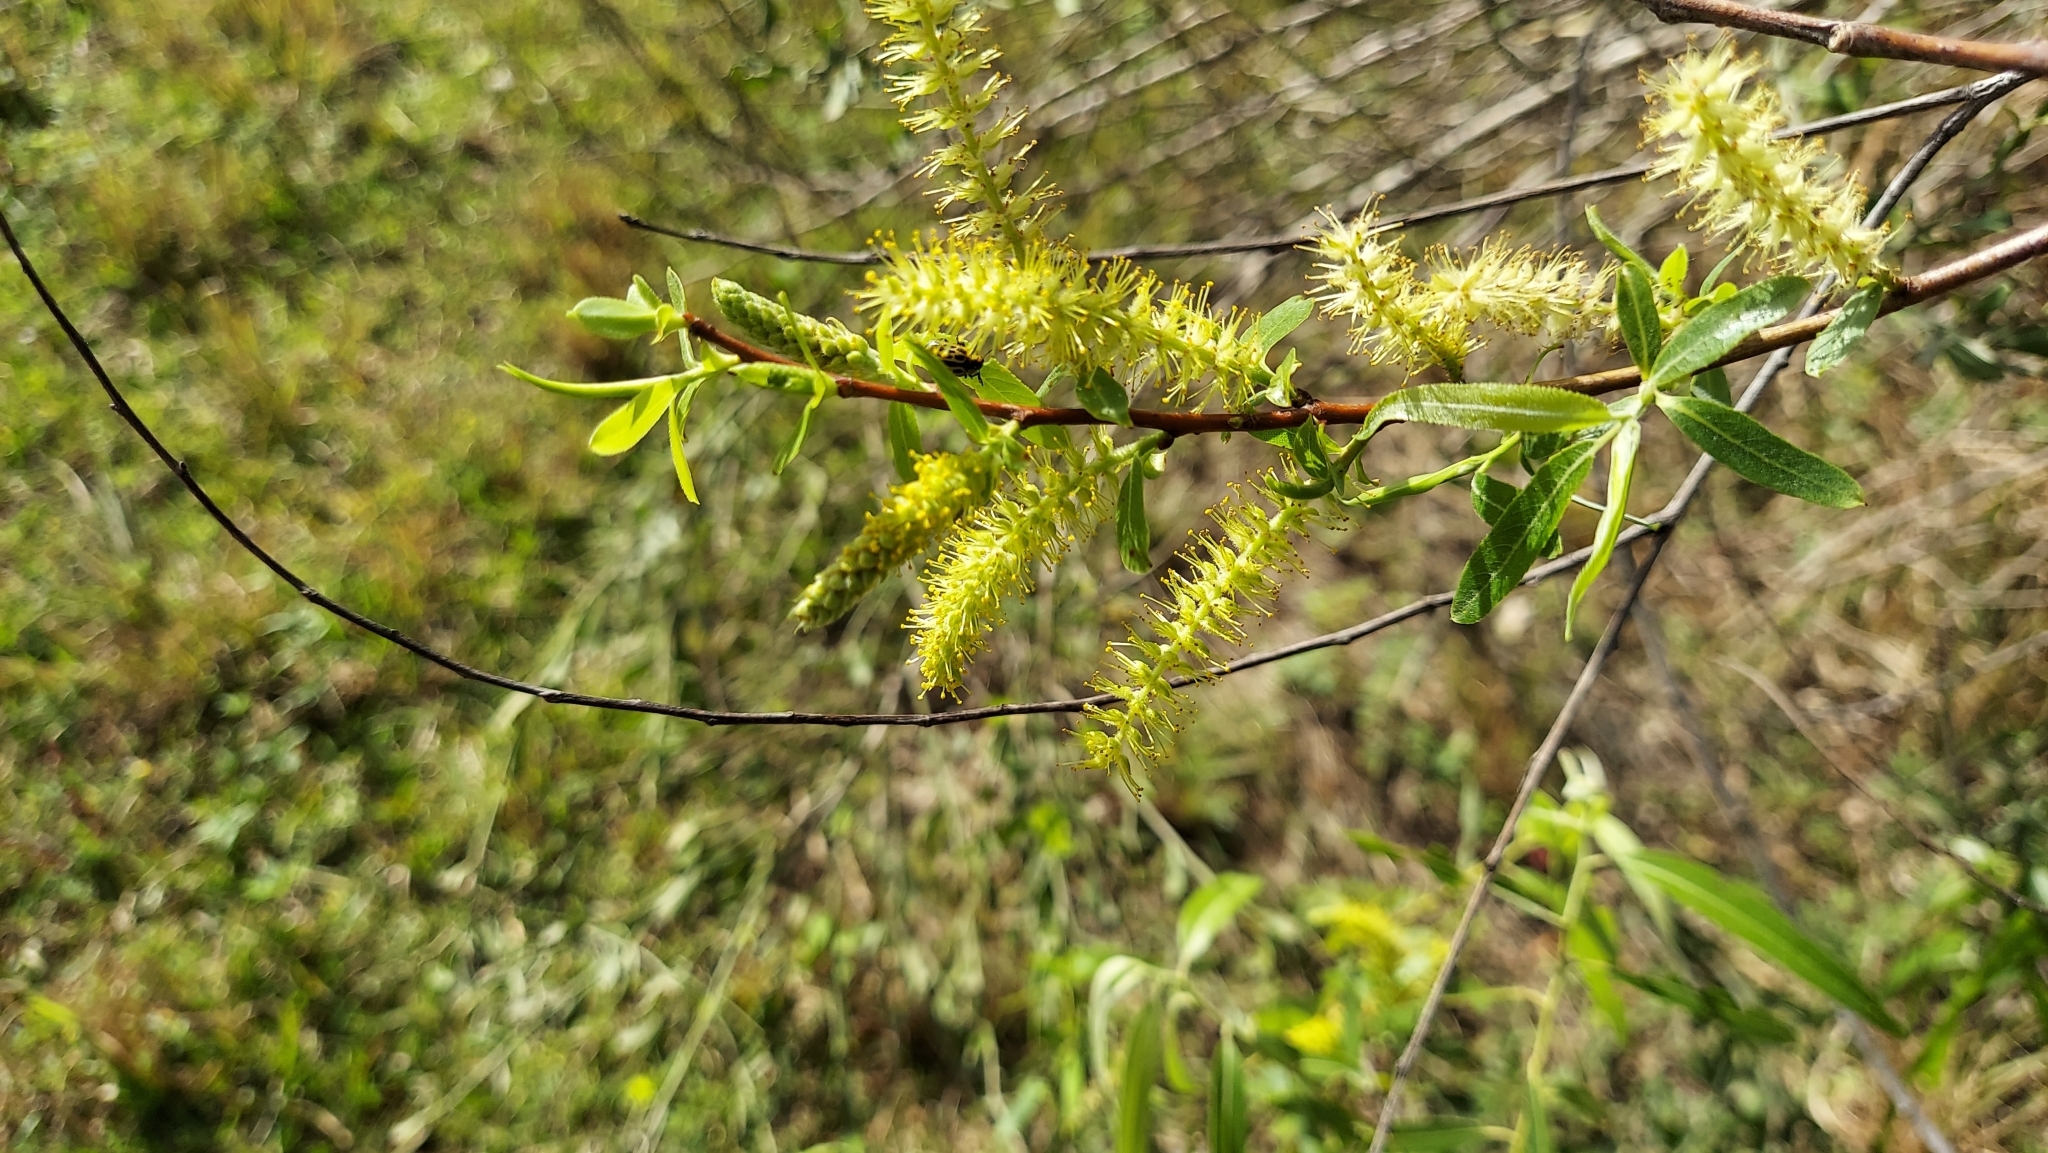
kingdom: Plantae
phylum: Tracheophyta
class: Magnoliopsida
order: Malpighiales
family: Salicaceae
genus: Salix
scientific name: Salix caroliniana
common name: Carolina willow
